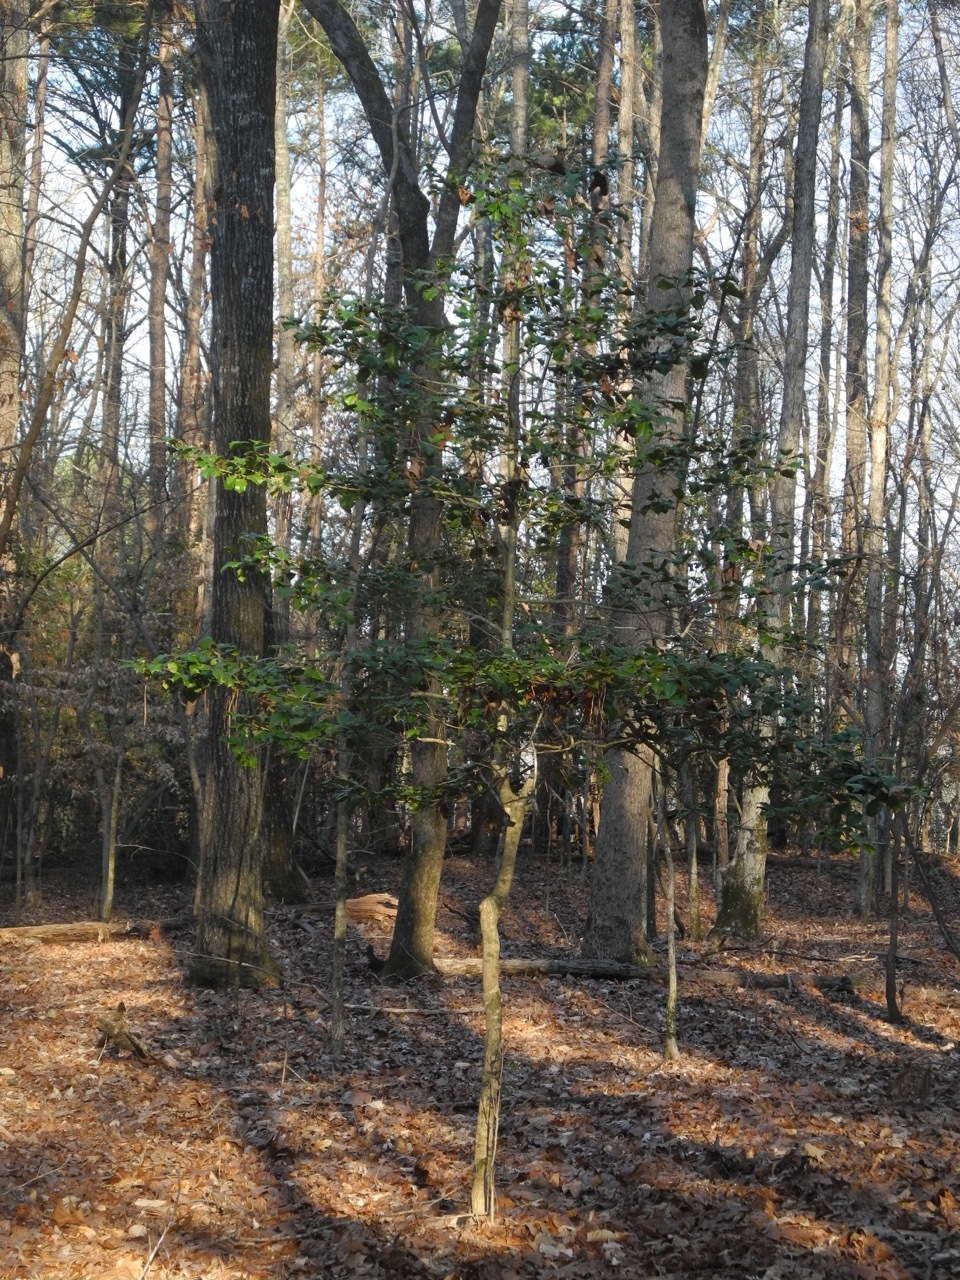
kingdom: Plantae
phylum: Tracheophyta
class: Magnoliopsida
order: Aquifoliales
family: Aquifoliaceae
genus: Ilex
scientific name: Ilex opaca
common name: American holly
